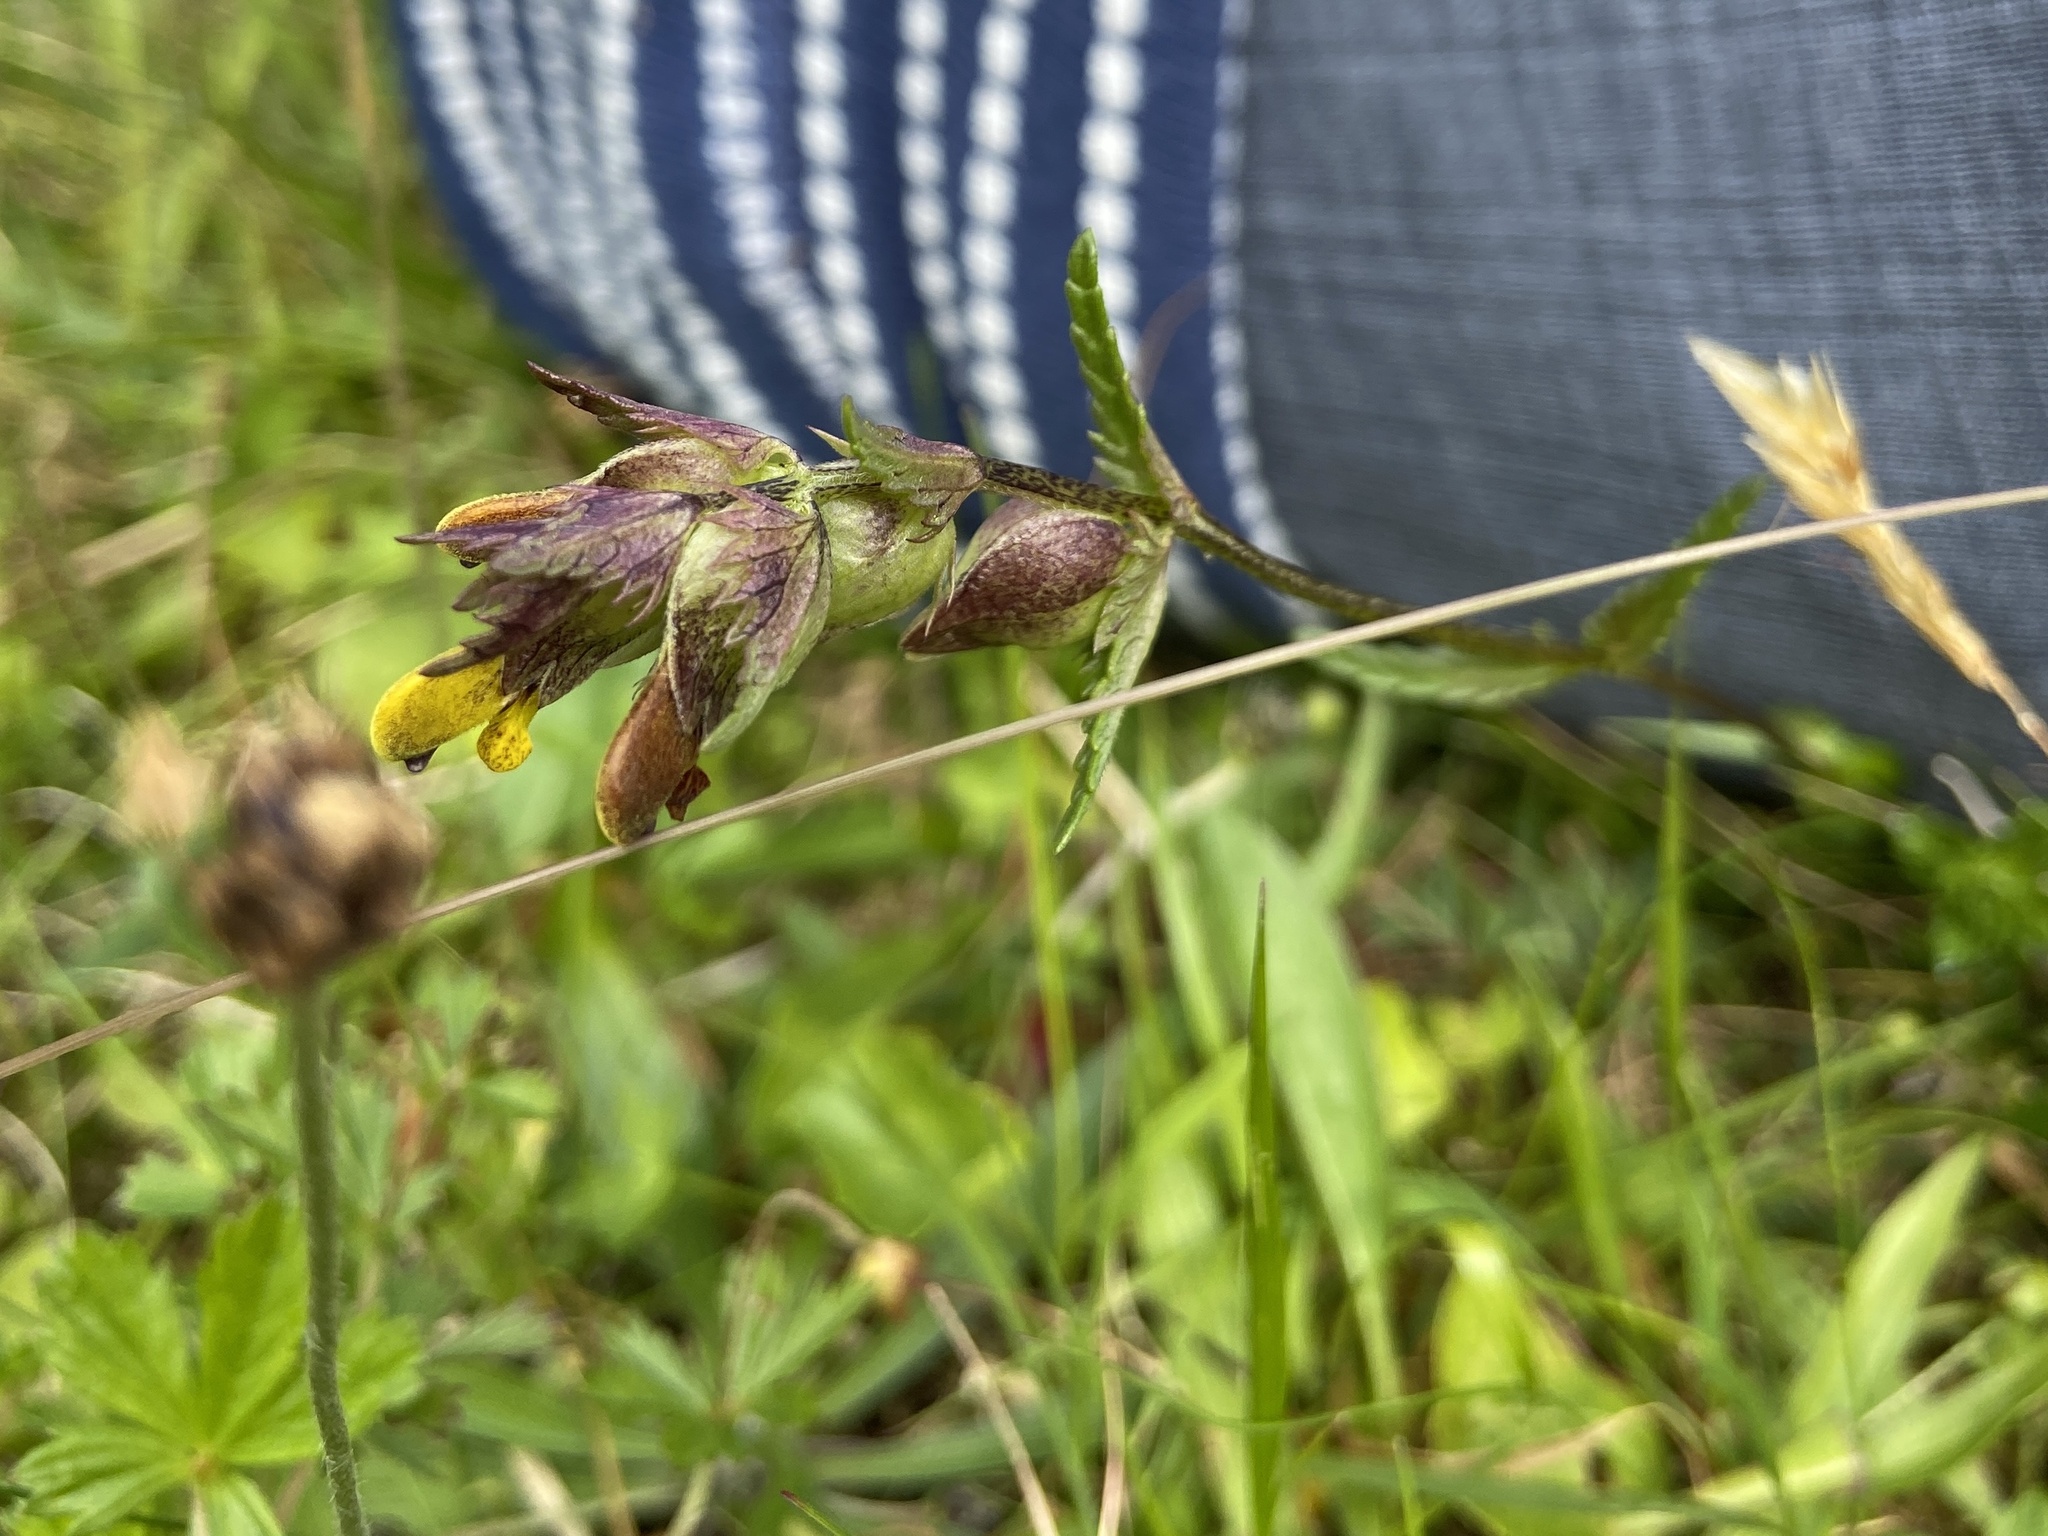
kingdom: Plantae
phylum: Tracheophyta
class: Magnoliopsida
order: Lamiales
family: Orobanchaceae
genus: Rhinanthus
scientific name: Rhinanthus minor
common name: Yellow-rattle
